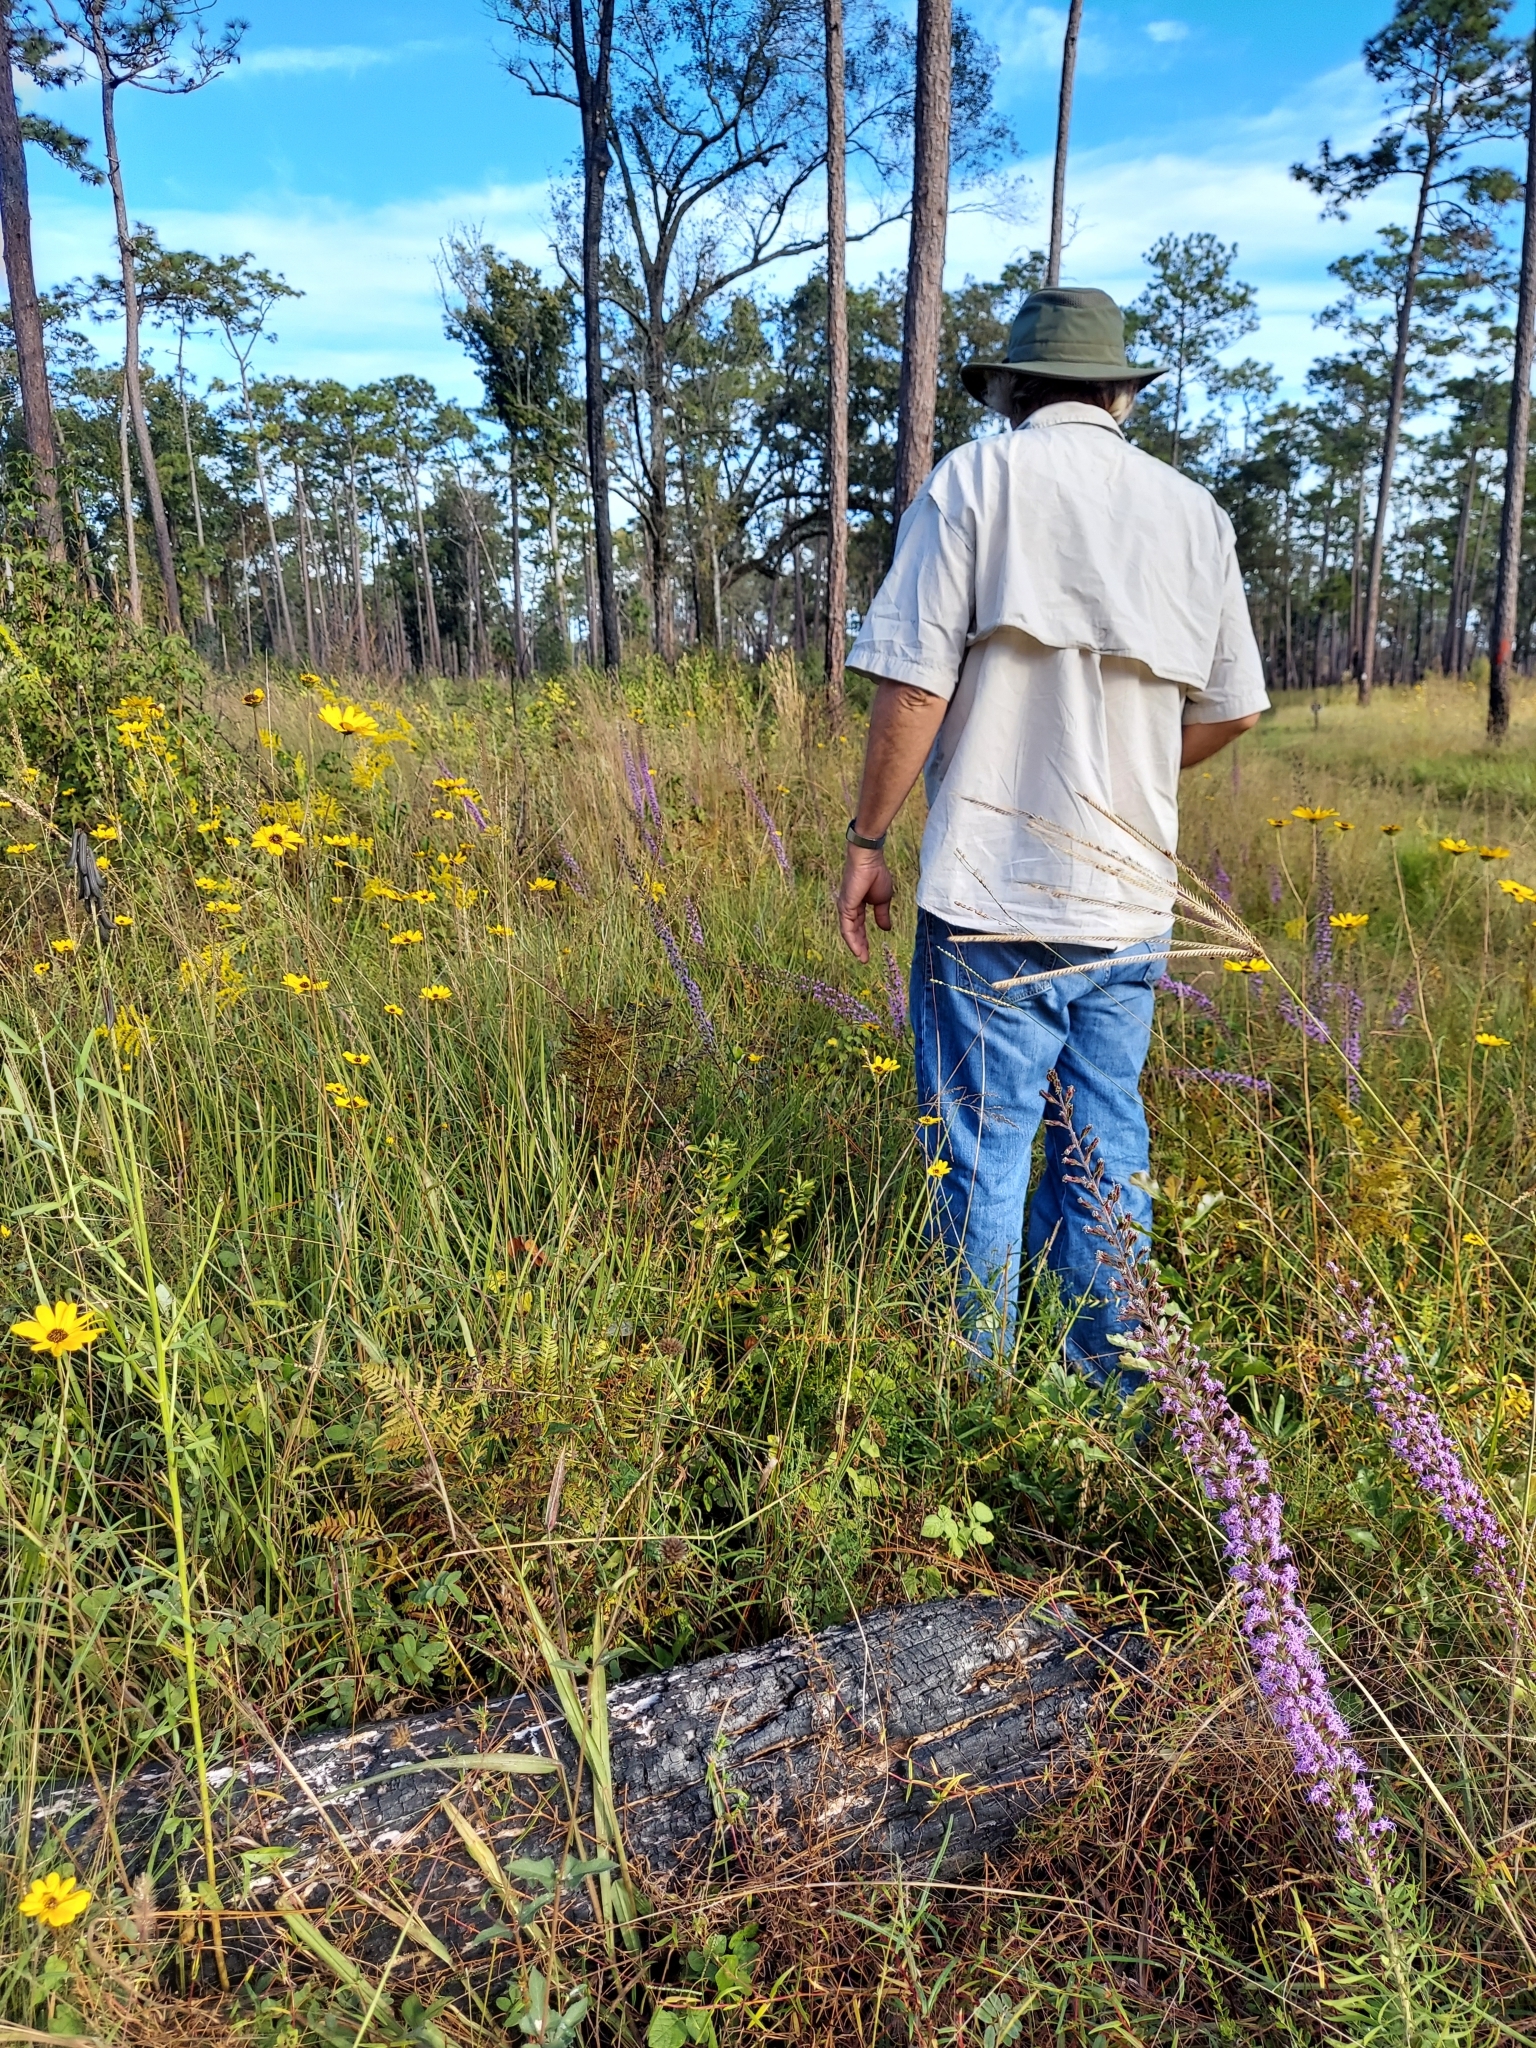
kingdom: Plantae
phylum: Tracheophyta
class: Magnoliopsida
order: Asterales
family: Asteraceae
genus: Helianthus
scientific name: Helianthus angustifolius
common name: Swamp sunflower
